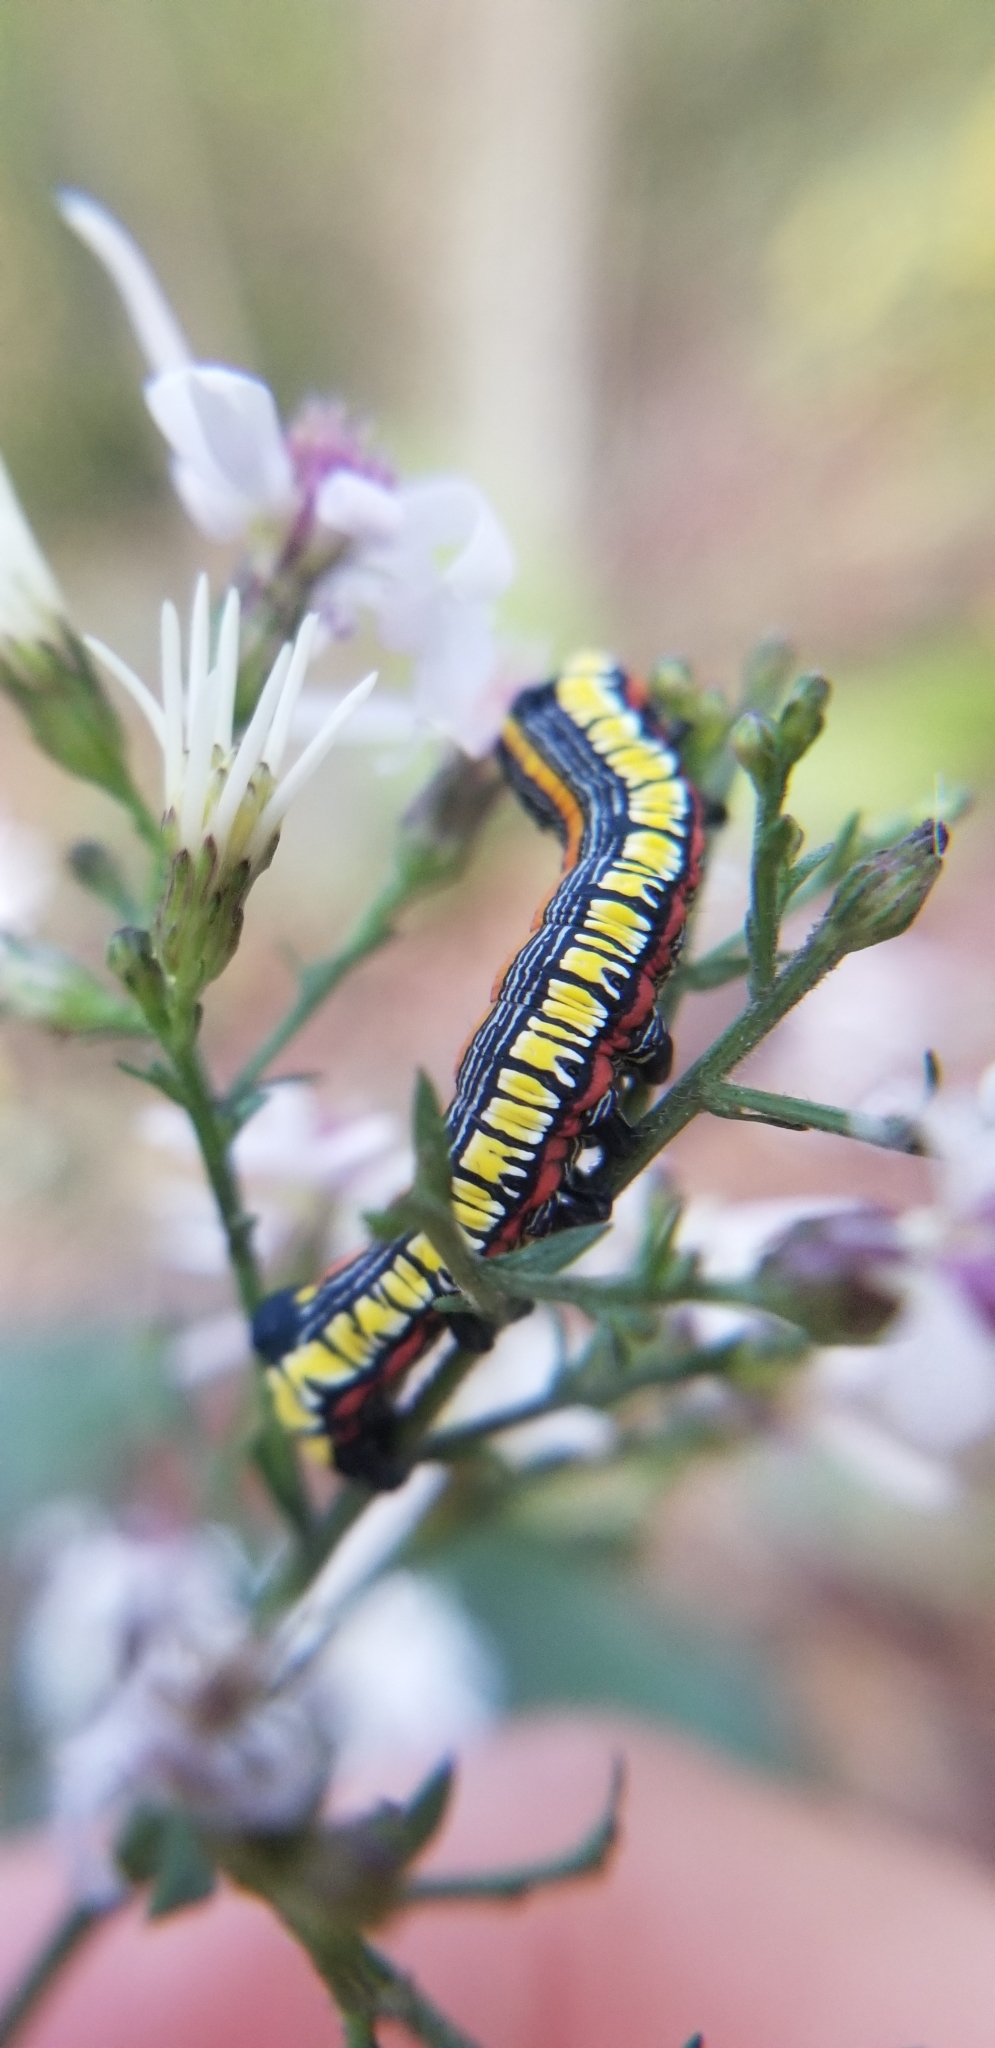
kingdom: Animalia
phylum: Arthropoda
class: Insecta
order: Lepidoptera
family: Noctuidae
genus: Cucullia
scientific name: Cucullia convexipennis
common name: Brown-hooded owlet
